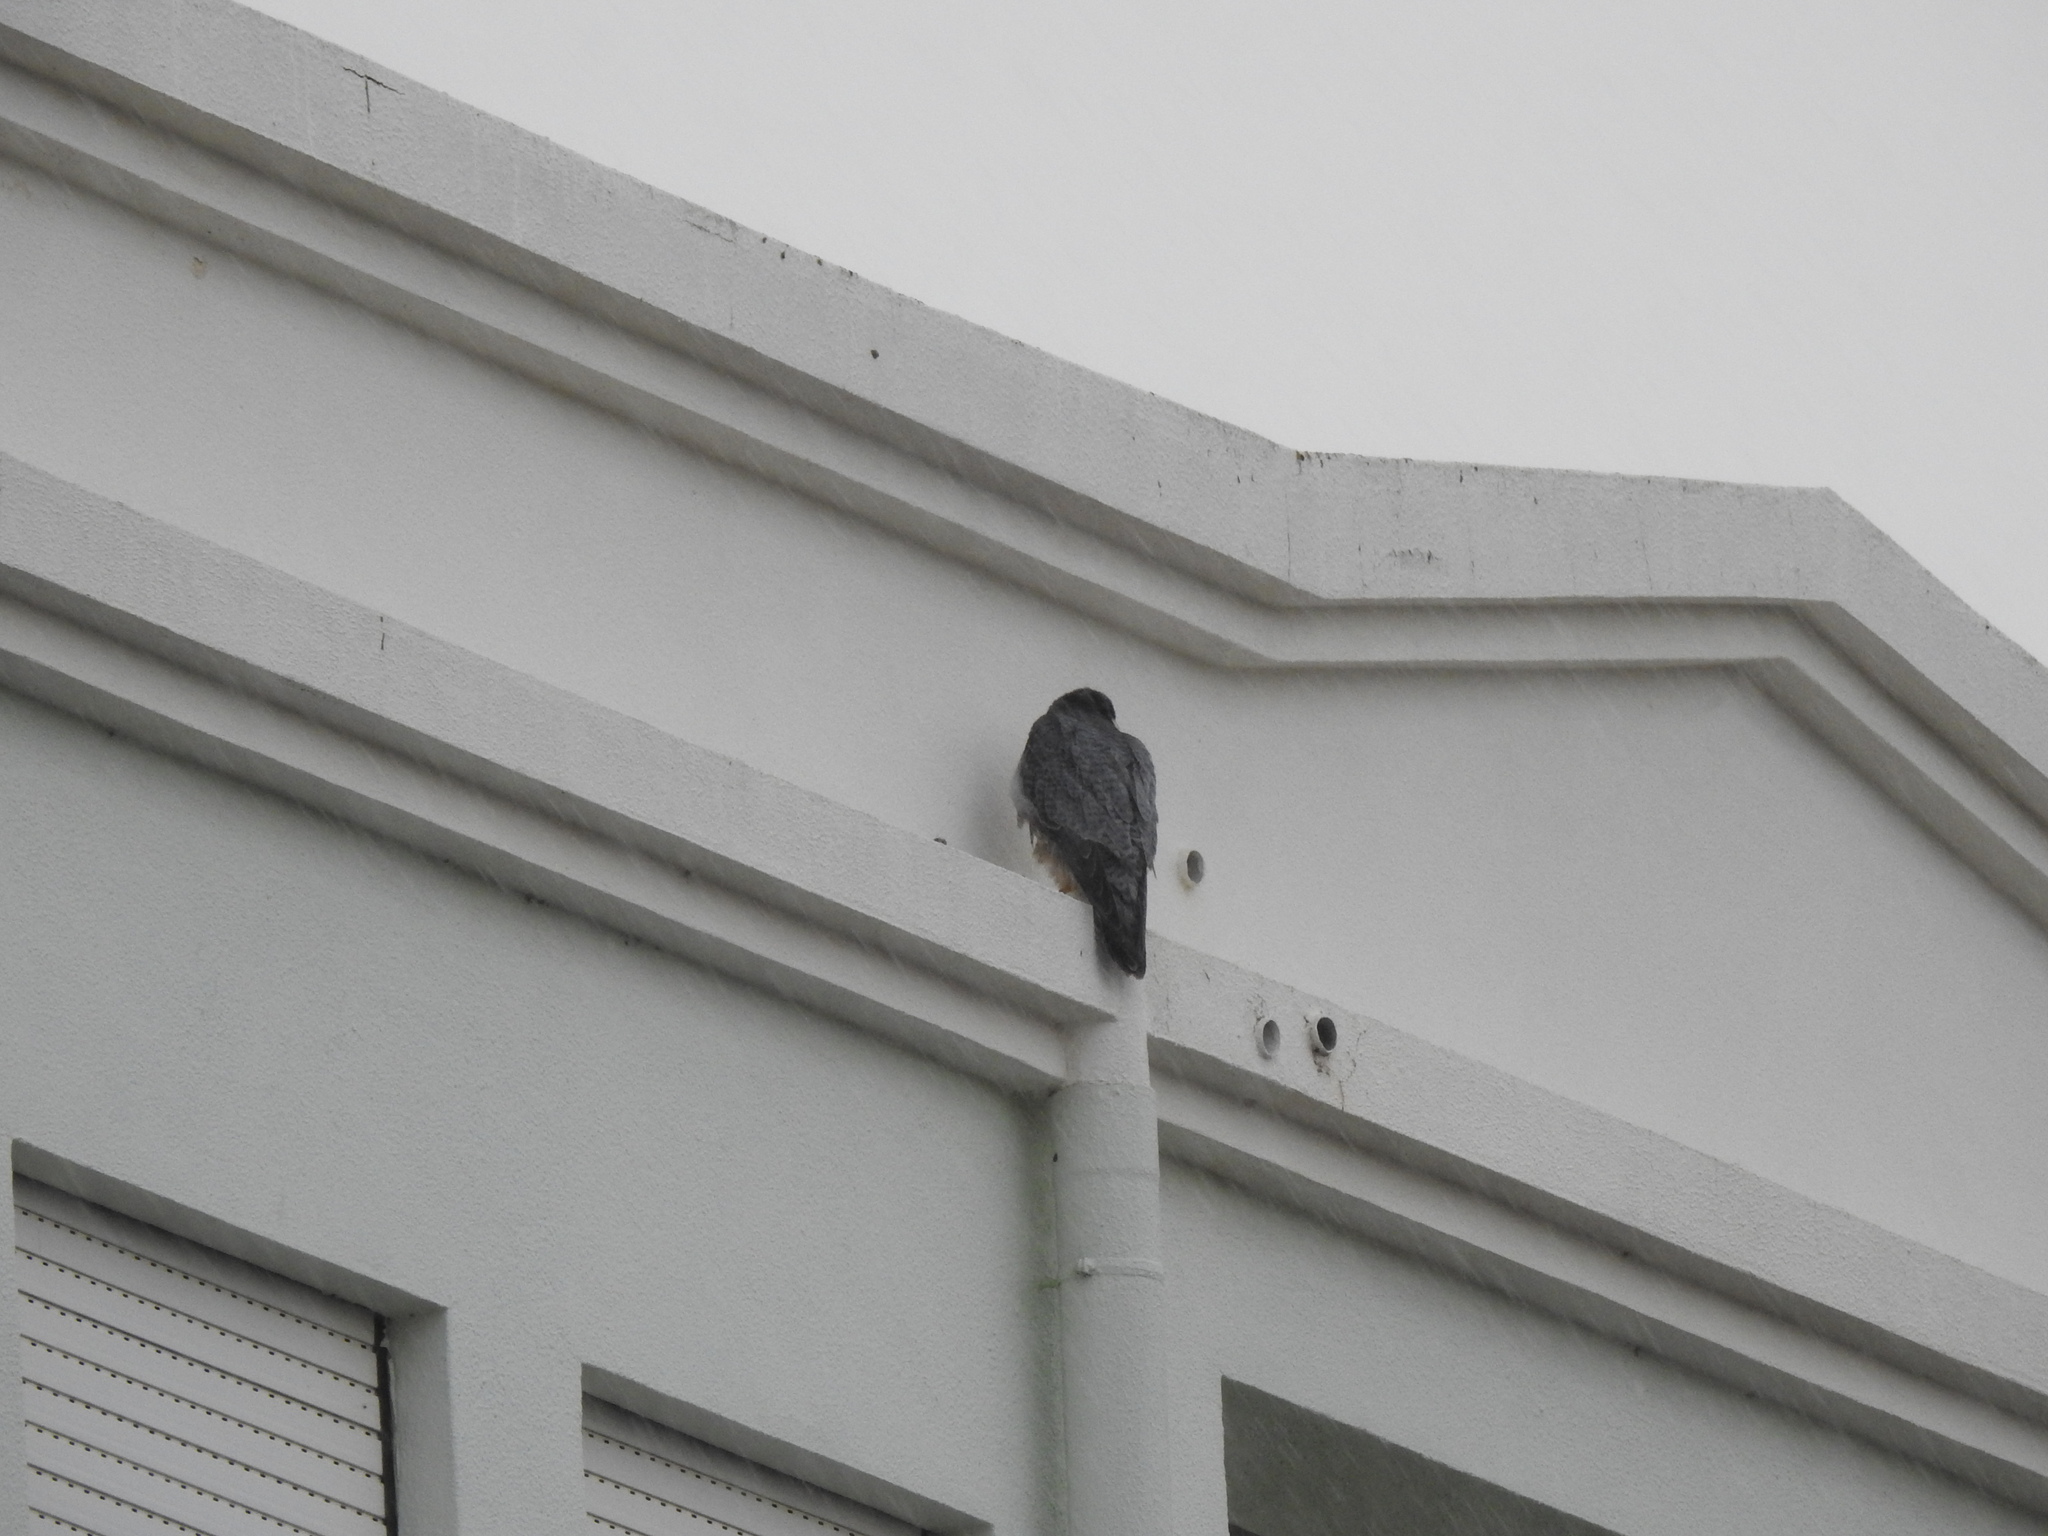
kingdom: Animalia
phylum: Chordata
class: Aves
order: Falconiformes
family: Falconidae
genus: Falco
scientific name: Falco peregrinus
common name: Peregrine falcon
